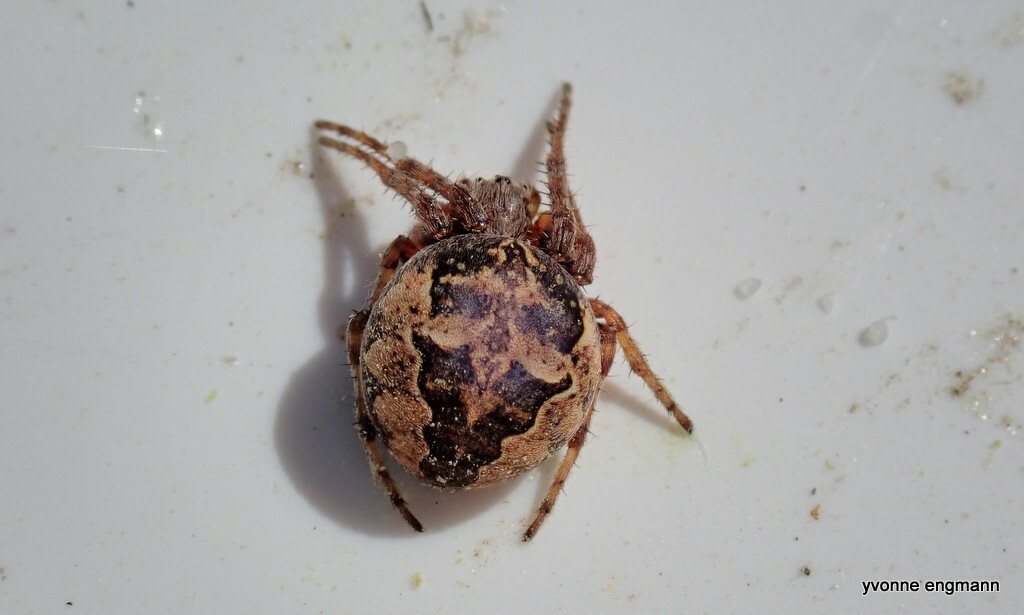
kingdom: Animalia
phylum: Arthropoda
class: Arachnida
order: Araneae
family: Araneidae
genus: Larinioides
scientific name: Larinioides cornutus
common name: Furrow orbweaver
